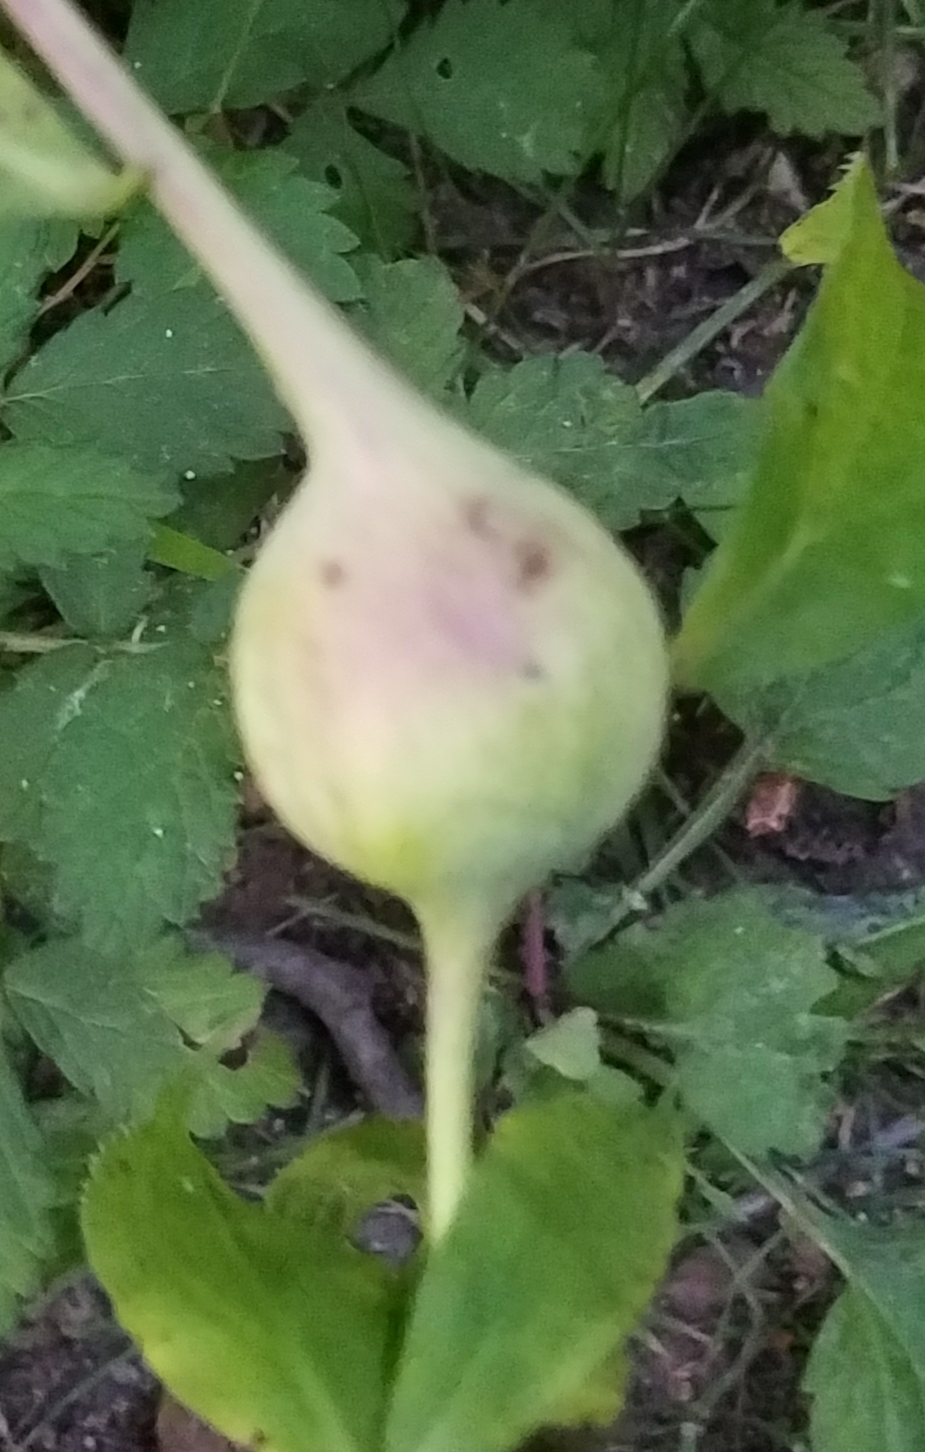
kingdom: Animalia
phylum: Arthropoda
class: Insecta
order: Diptera
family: Tephritidae
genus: Eurosta
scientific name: Eurosta solidaginis
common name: Goldenrod gall fly
